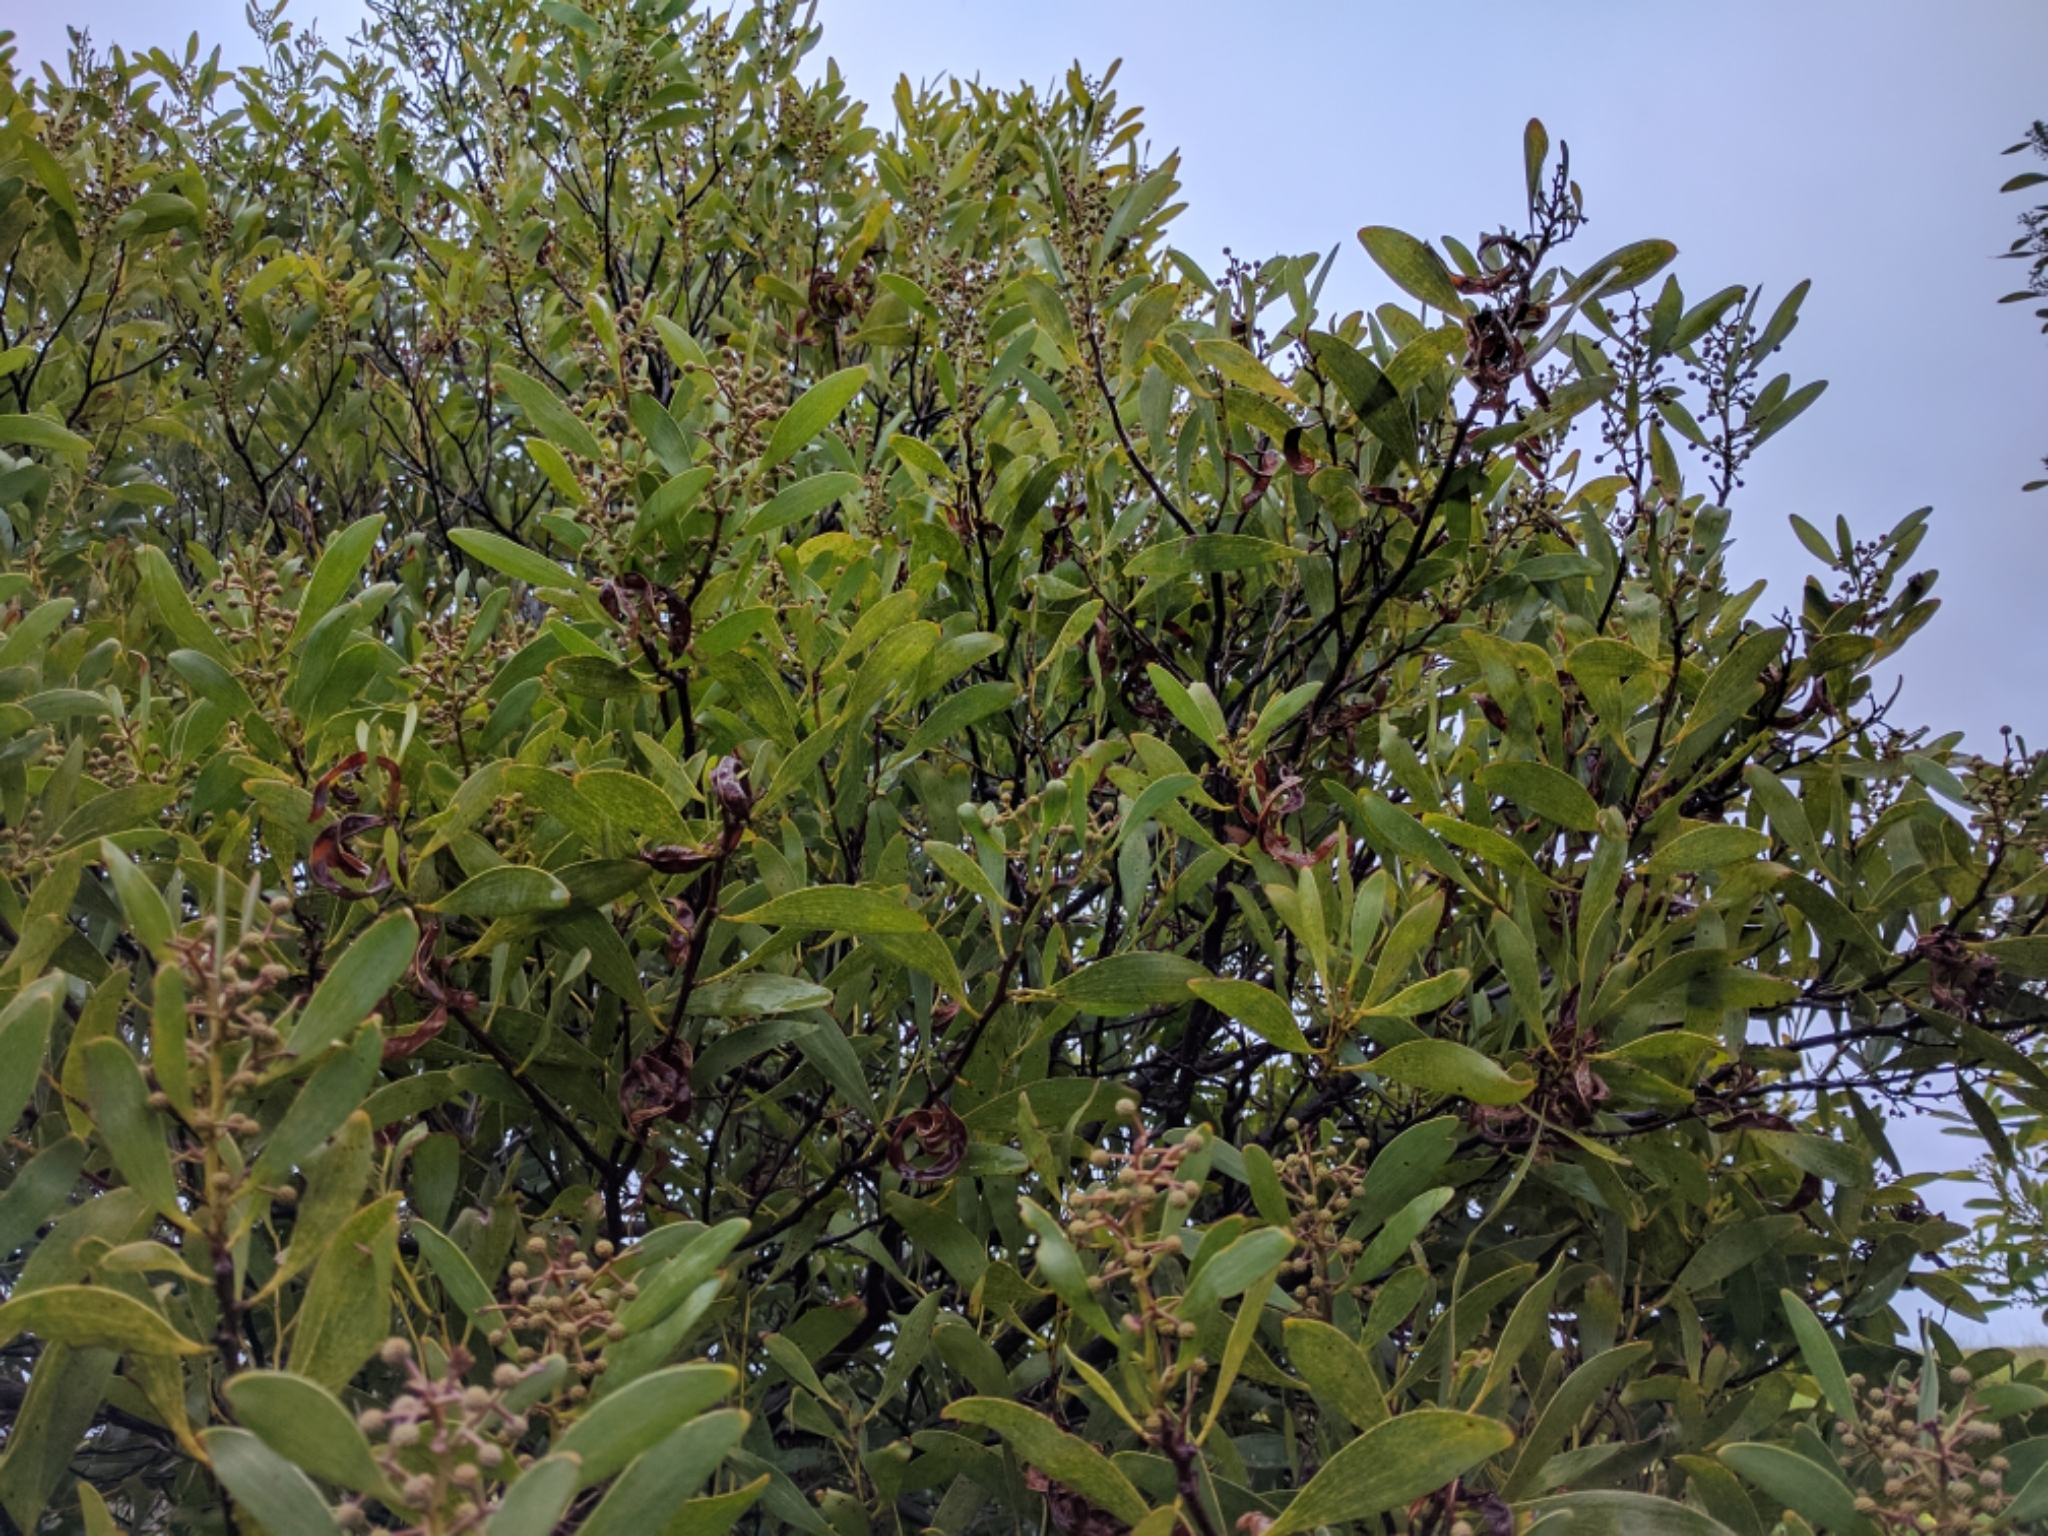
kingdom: Plantae
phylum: Tracheophyta
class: Magnoliopsida
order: Fabales
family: Fabaceae
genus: Acacia
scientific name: Acacia melanoxylon
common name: Blackwood
